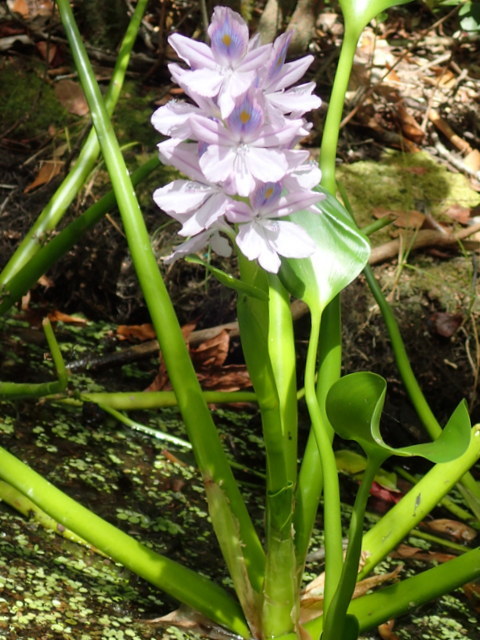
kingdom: Plantae
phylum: Tracheophyta
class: Liliopsida
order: Commelinales
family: Pontederiaceae
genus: Pontederia
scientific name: Pontederia crassipes
